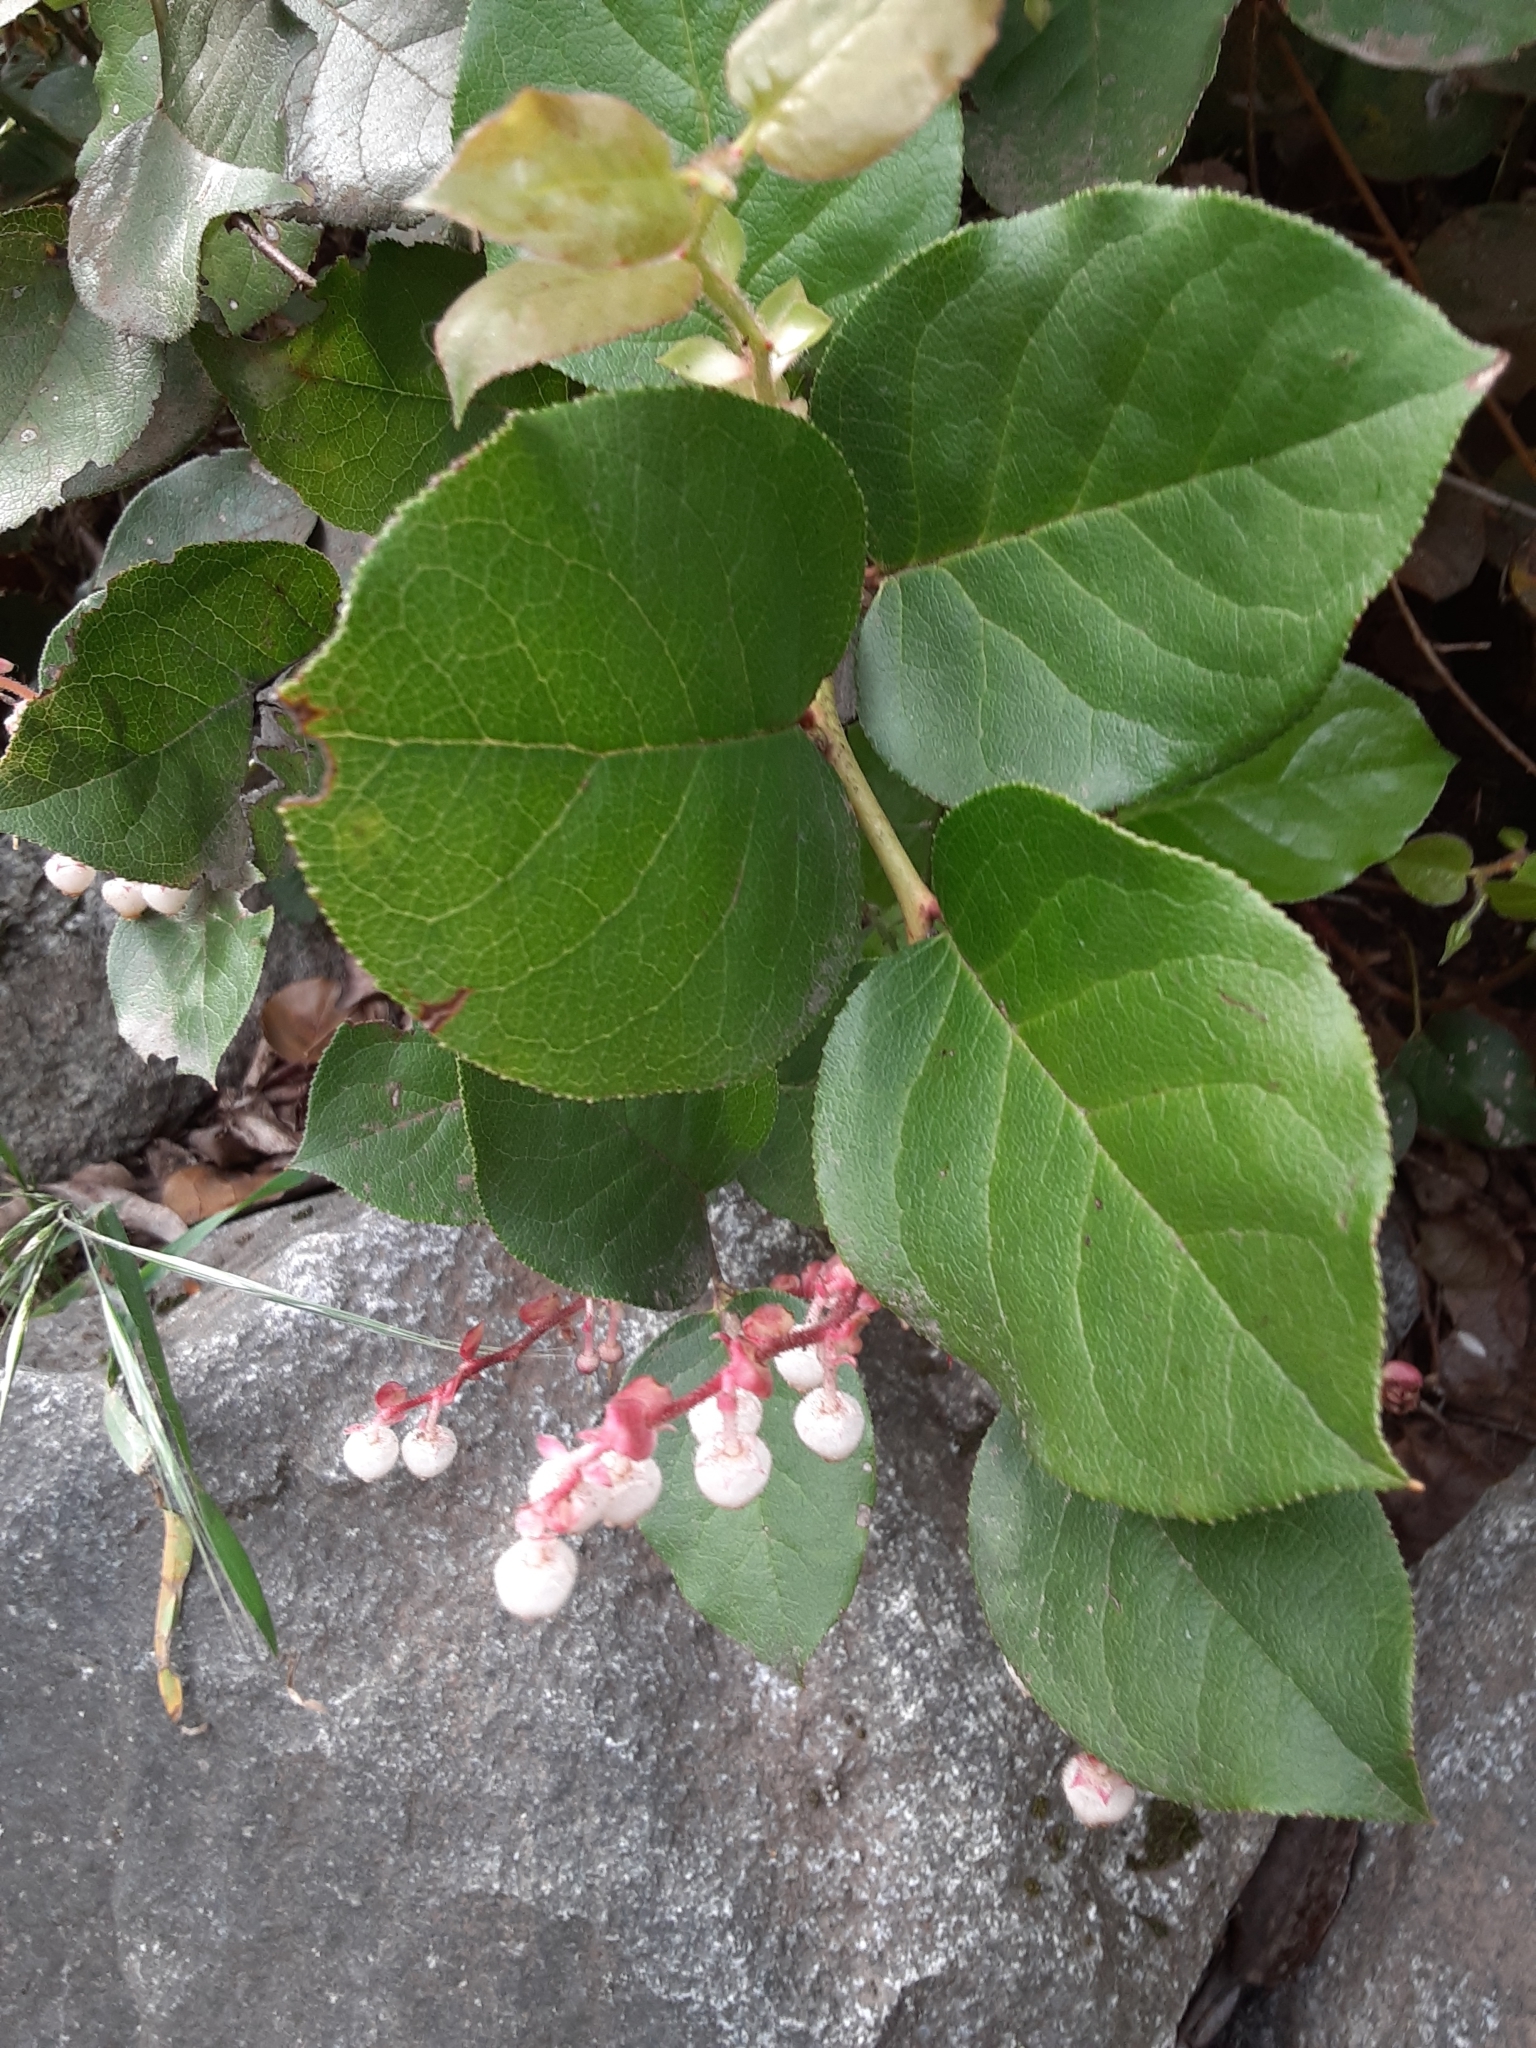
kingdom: Plantae
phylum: Tracheophyta
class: Magnoliopsida
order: Ericales
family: Ericaceae
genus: Gaultheria
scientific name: Gaultheria shallon
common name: Shallon
